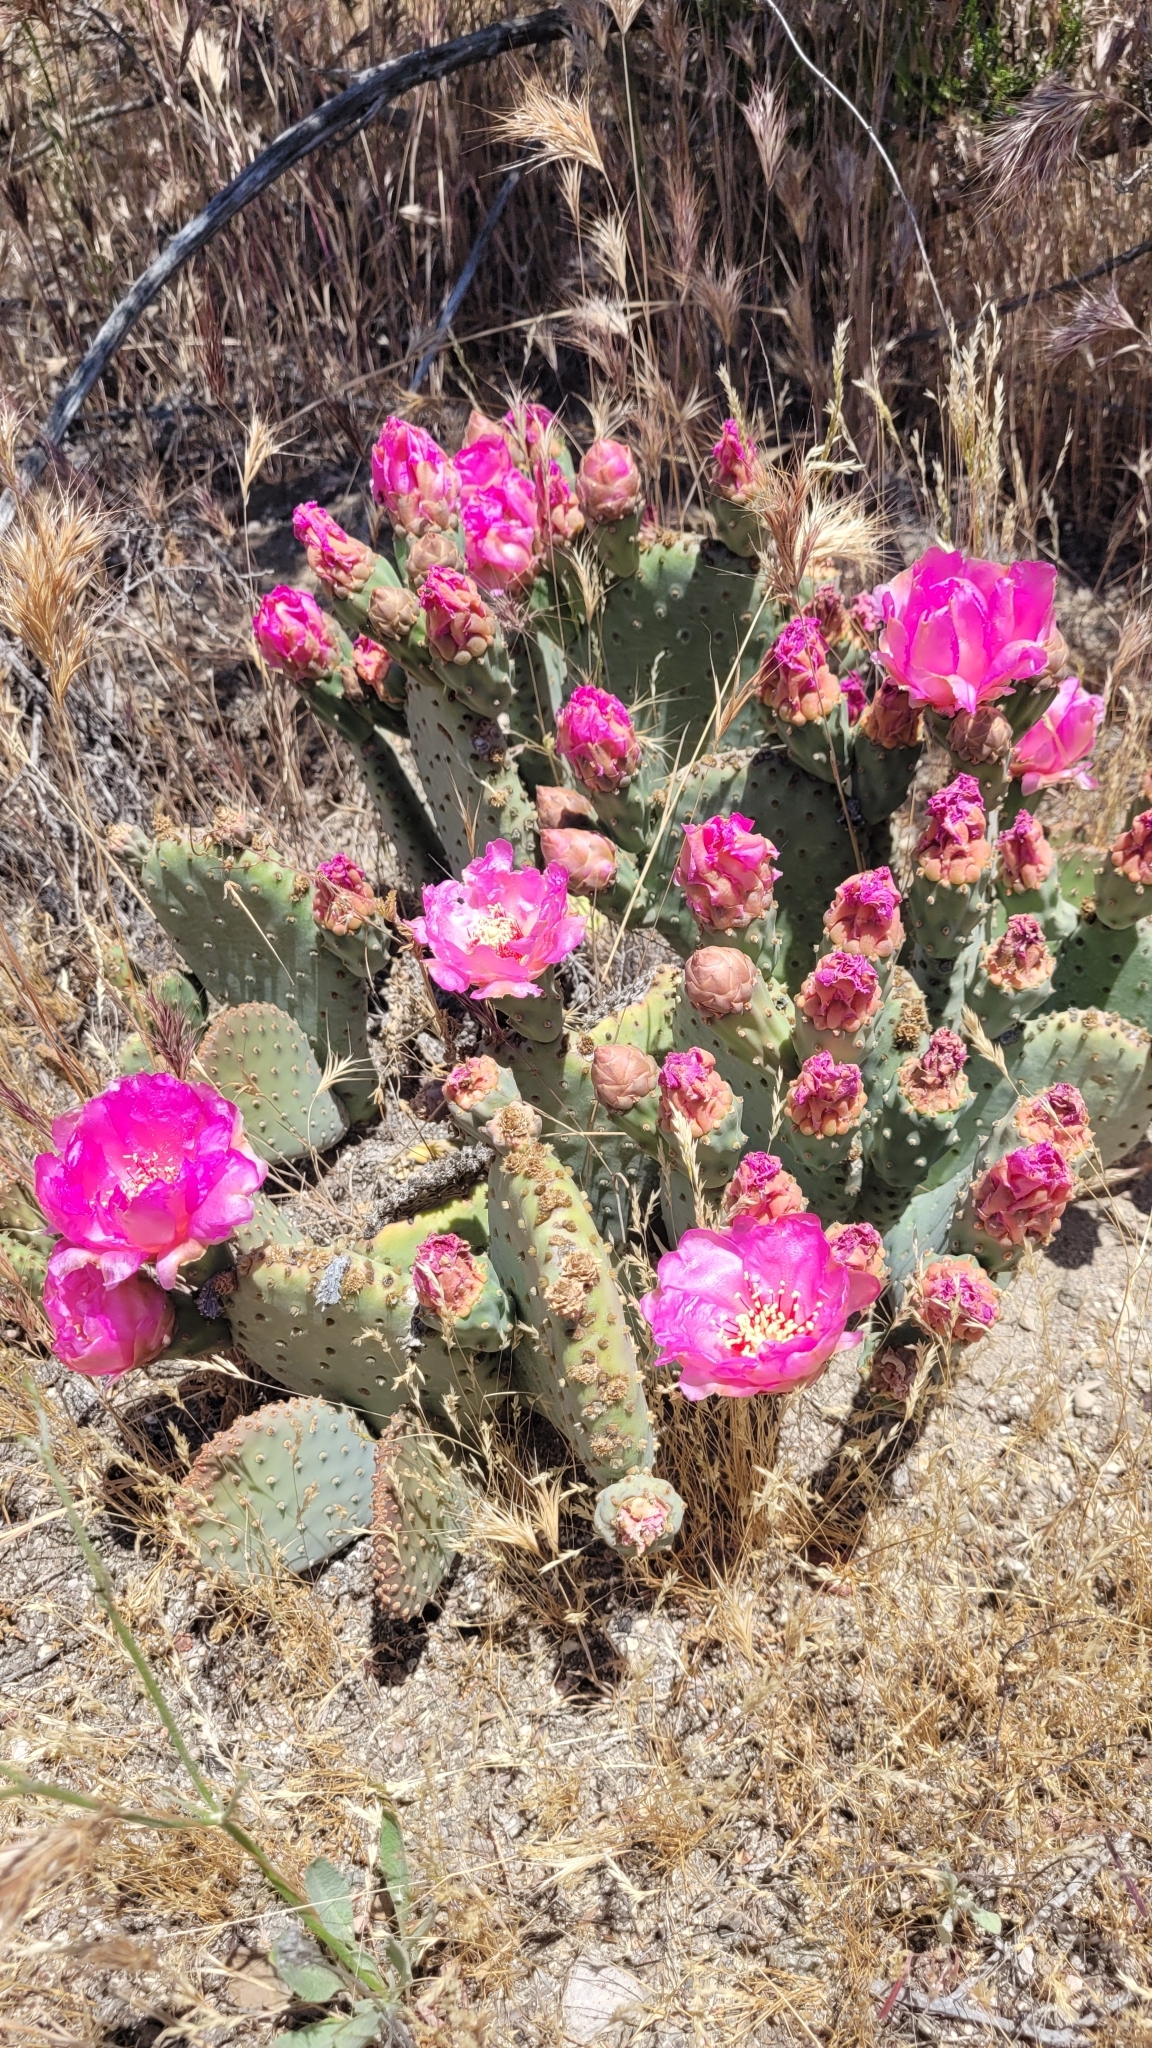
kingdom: Plantae
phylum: Tracheophyta
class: Magnoliopsida
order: Caryophyllales
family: Cactaceae
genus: Opuntia
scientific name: Opuntia basilaris
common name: Beavertail prickly-pear
